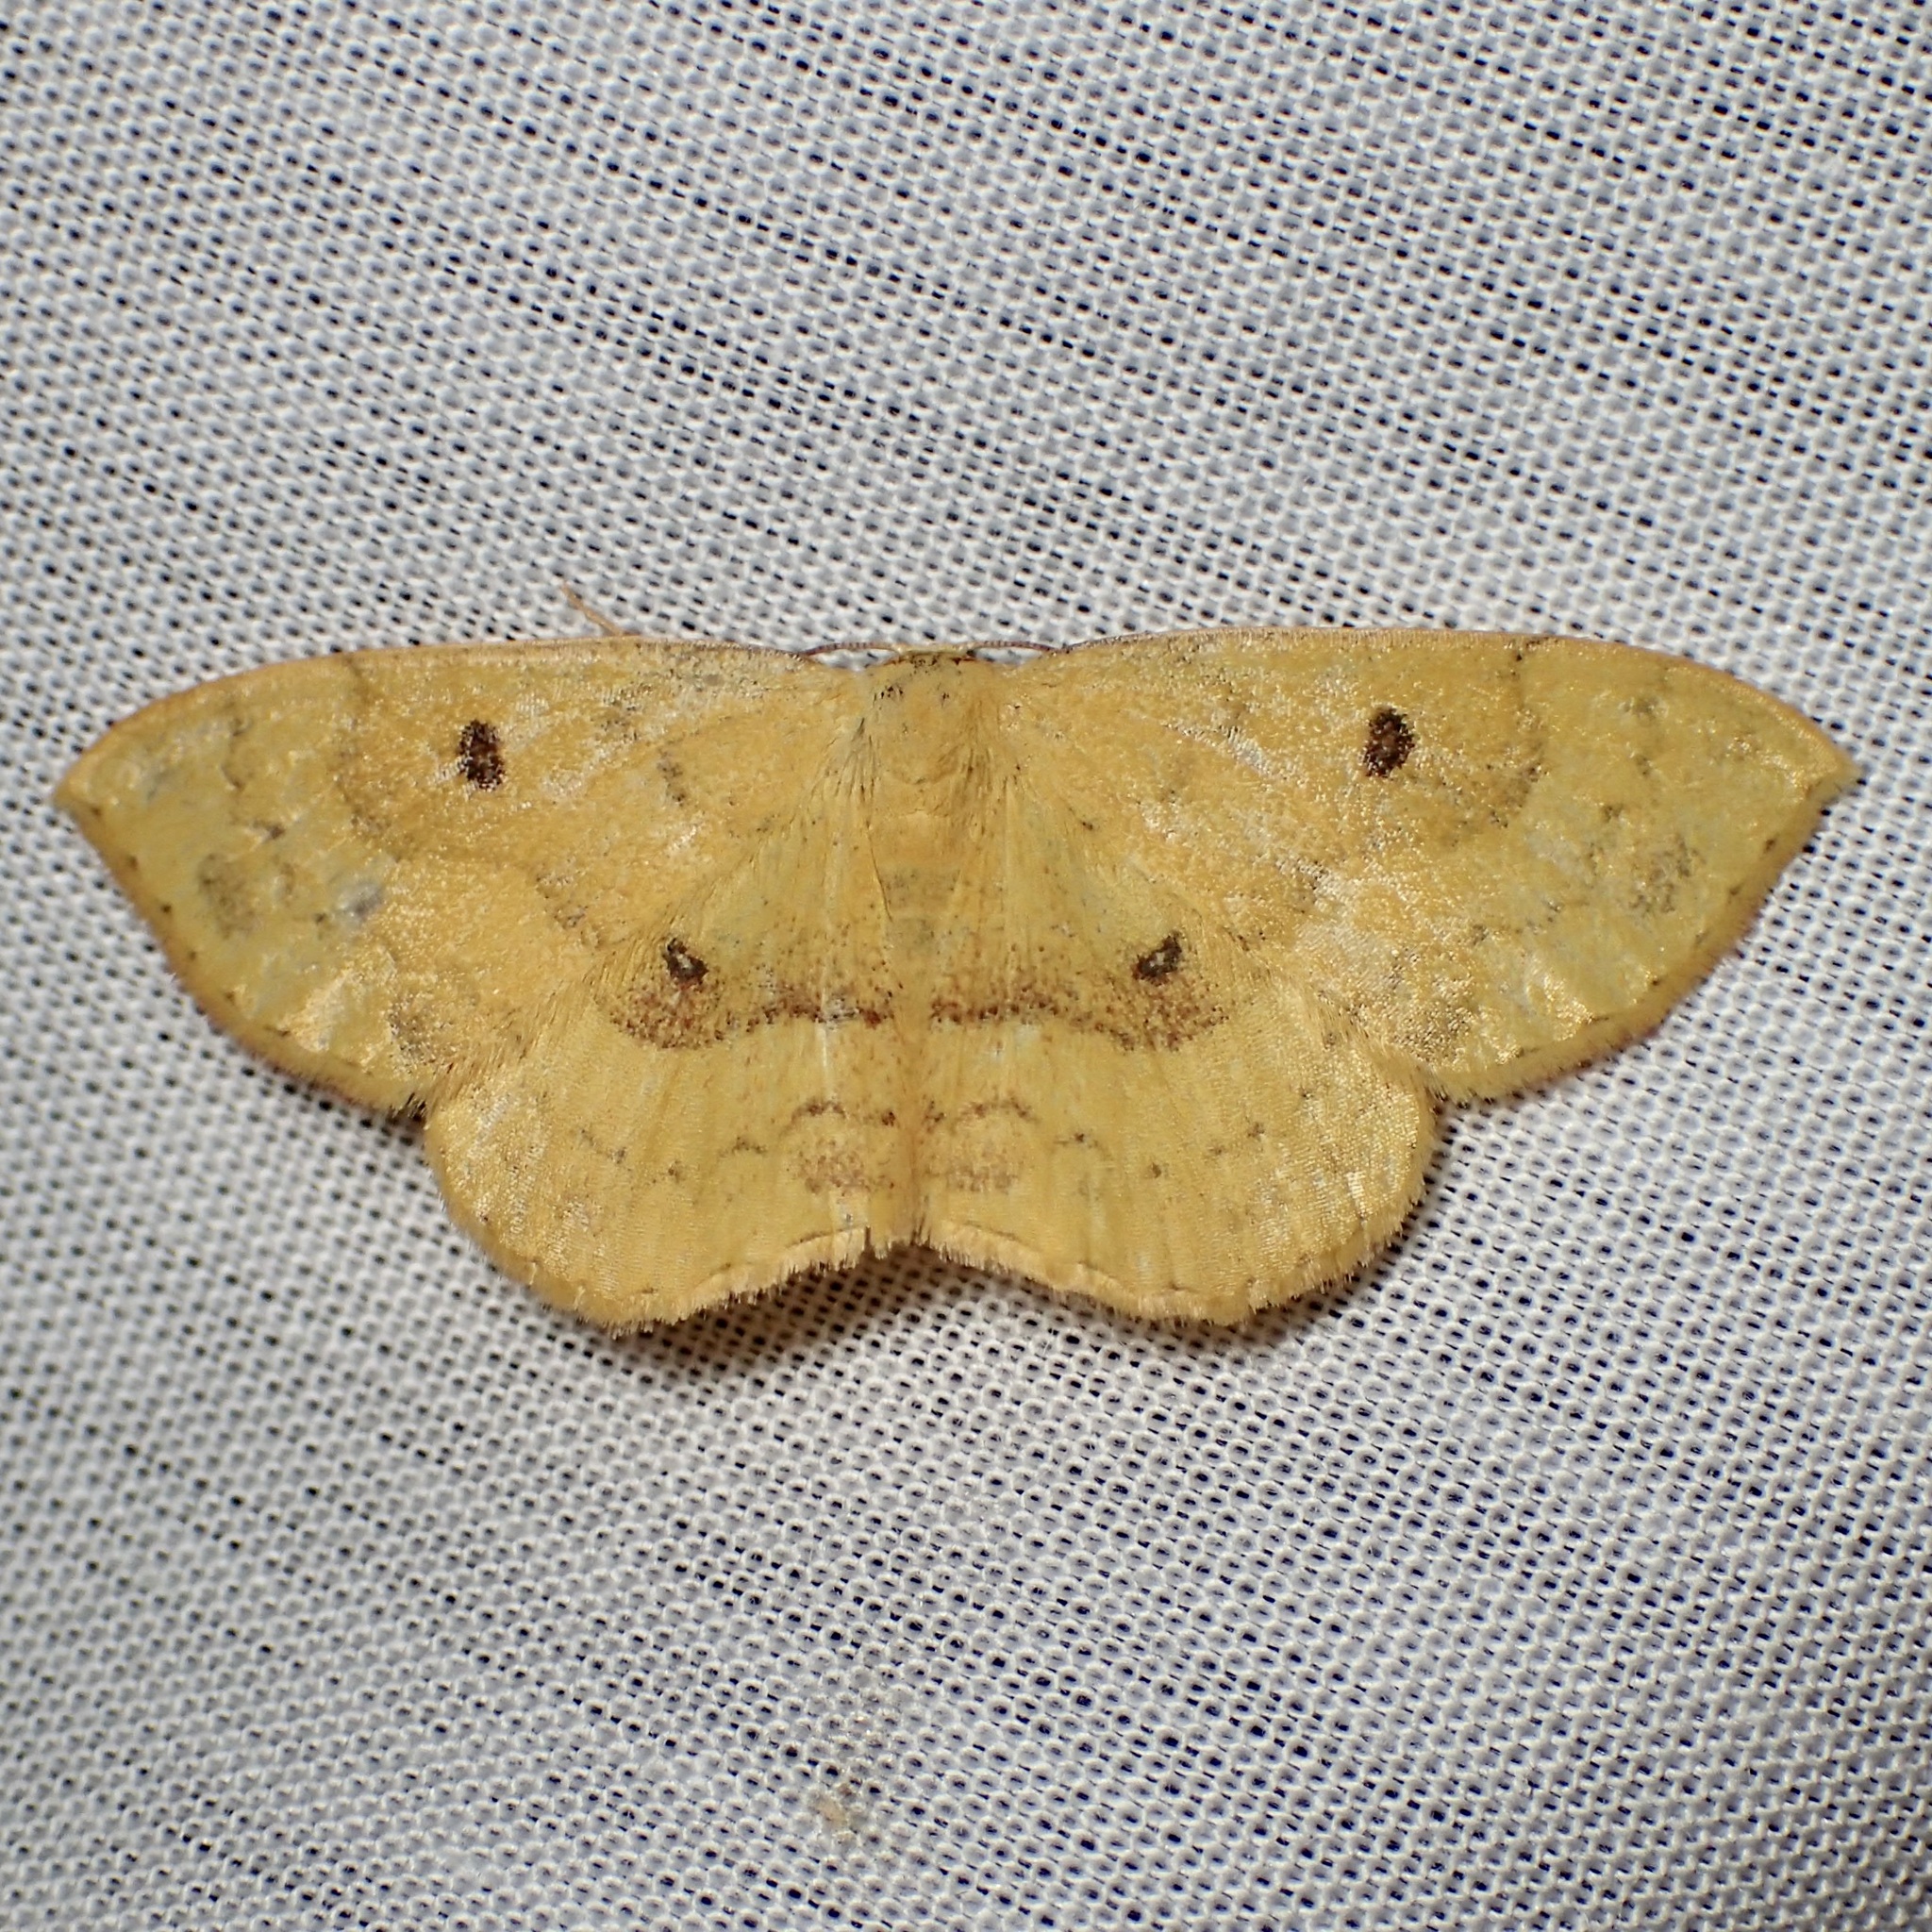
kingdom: Animalia
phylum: Arthropoda
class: Insecta
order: Lepidoptera
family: Geometridae
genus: Semaeopus
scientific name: Semaeopus ella
